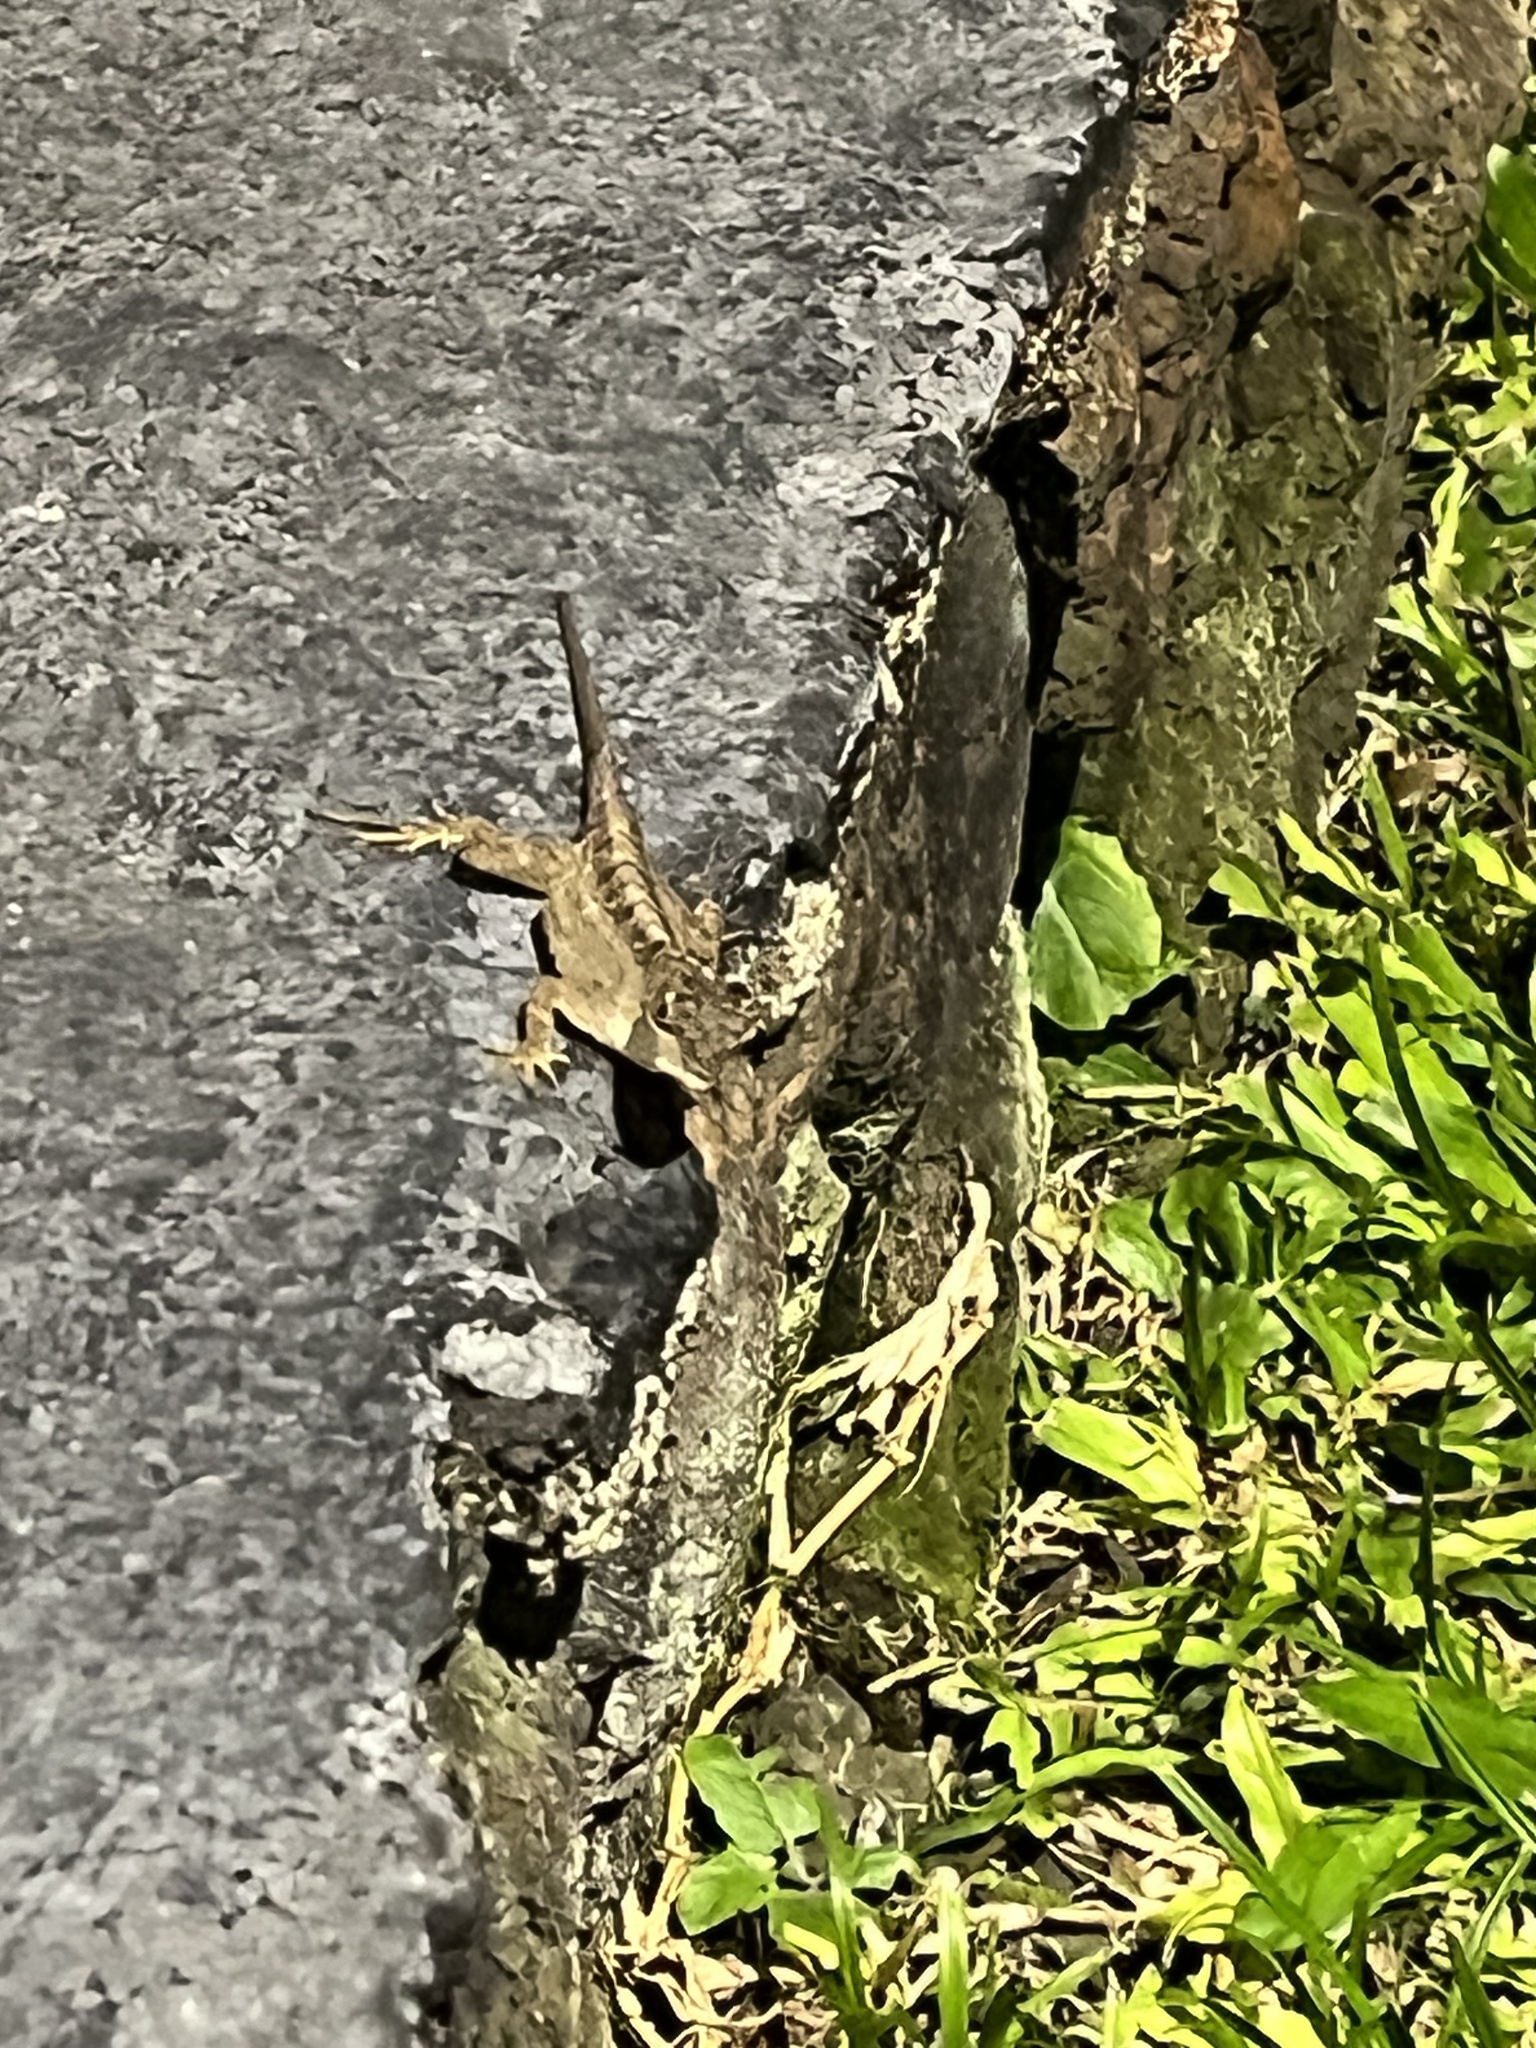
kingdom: Animalia
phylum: Chordata
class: Squamata
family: Dactyloidae
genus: Anolis
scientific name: Anolis sagrei
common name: Brown anole
